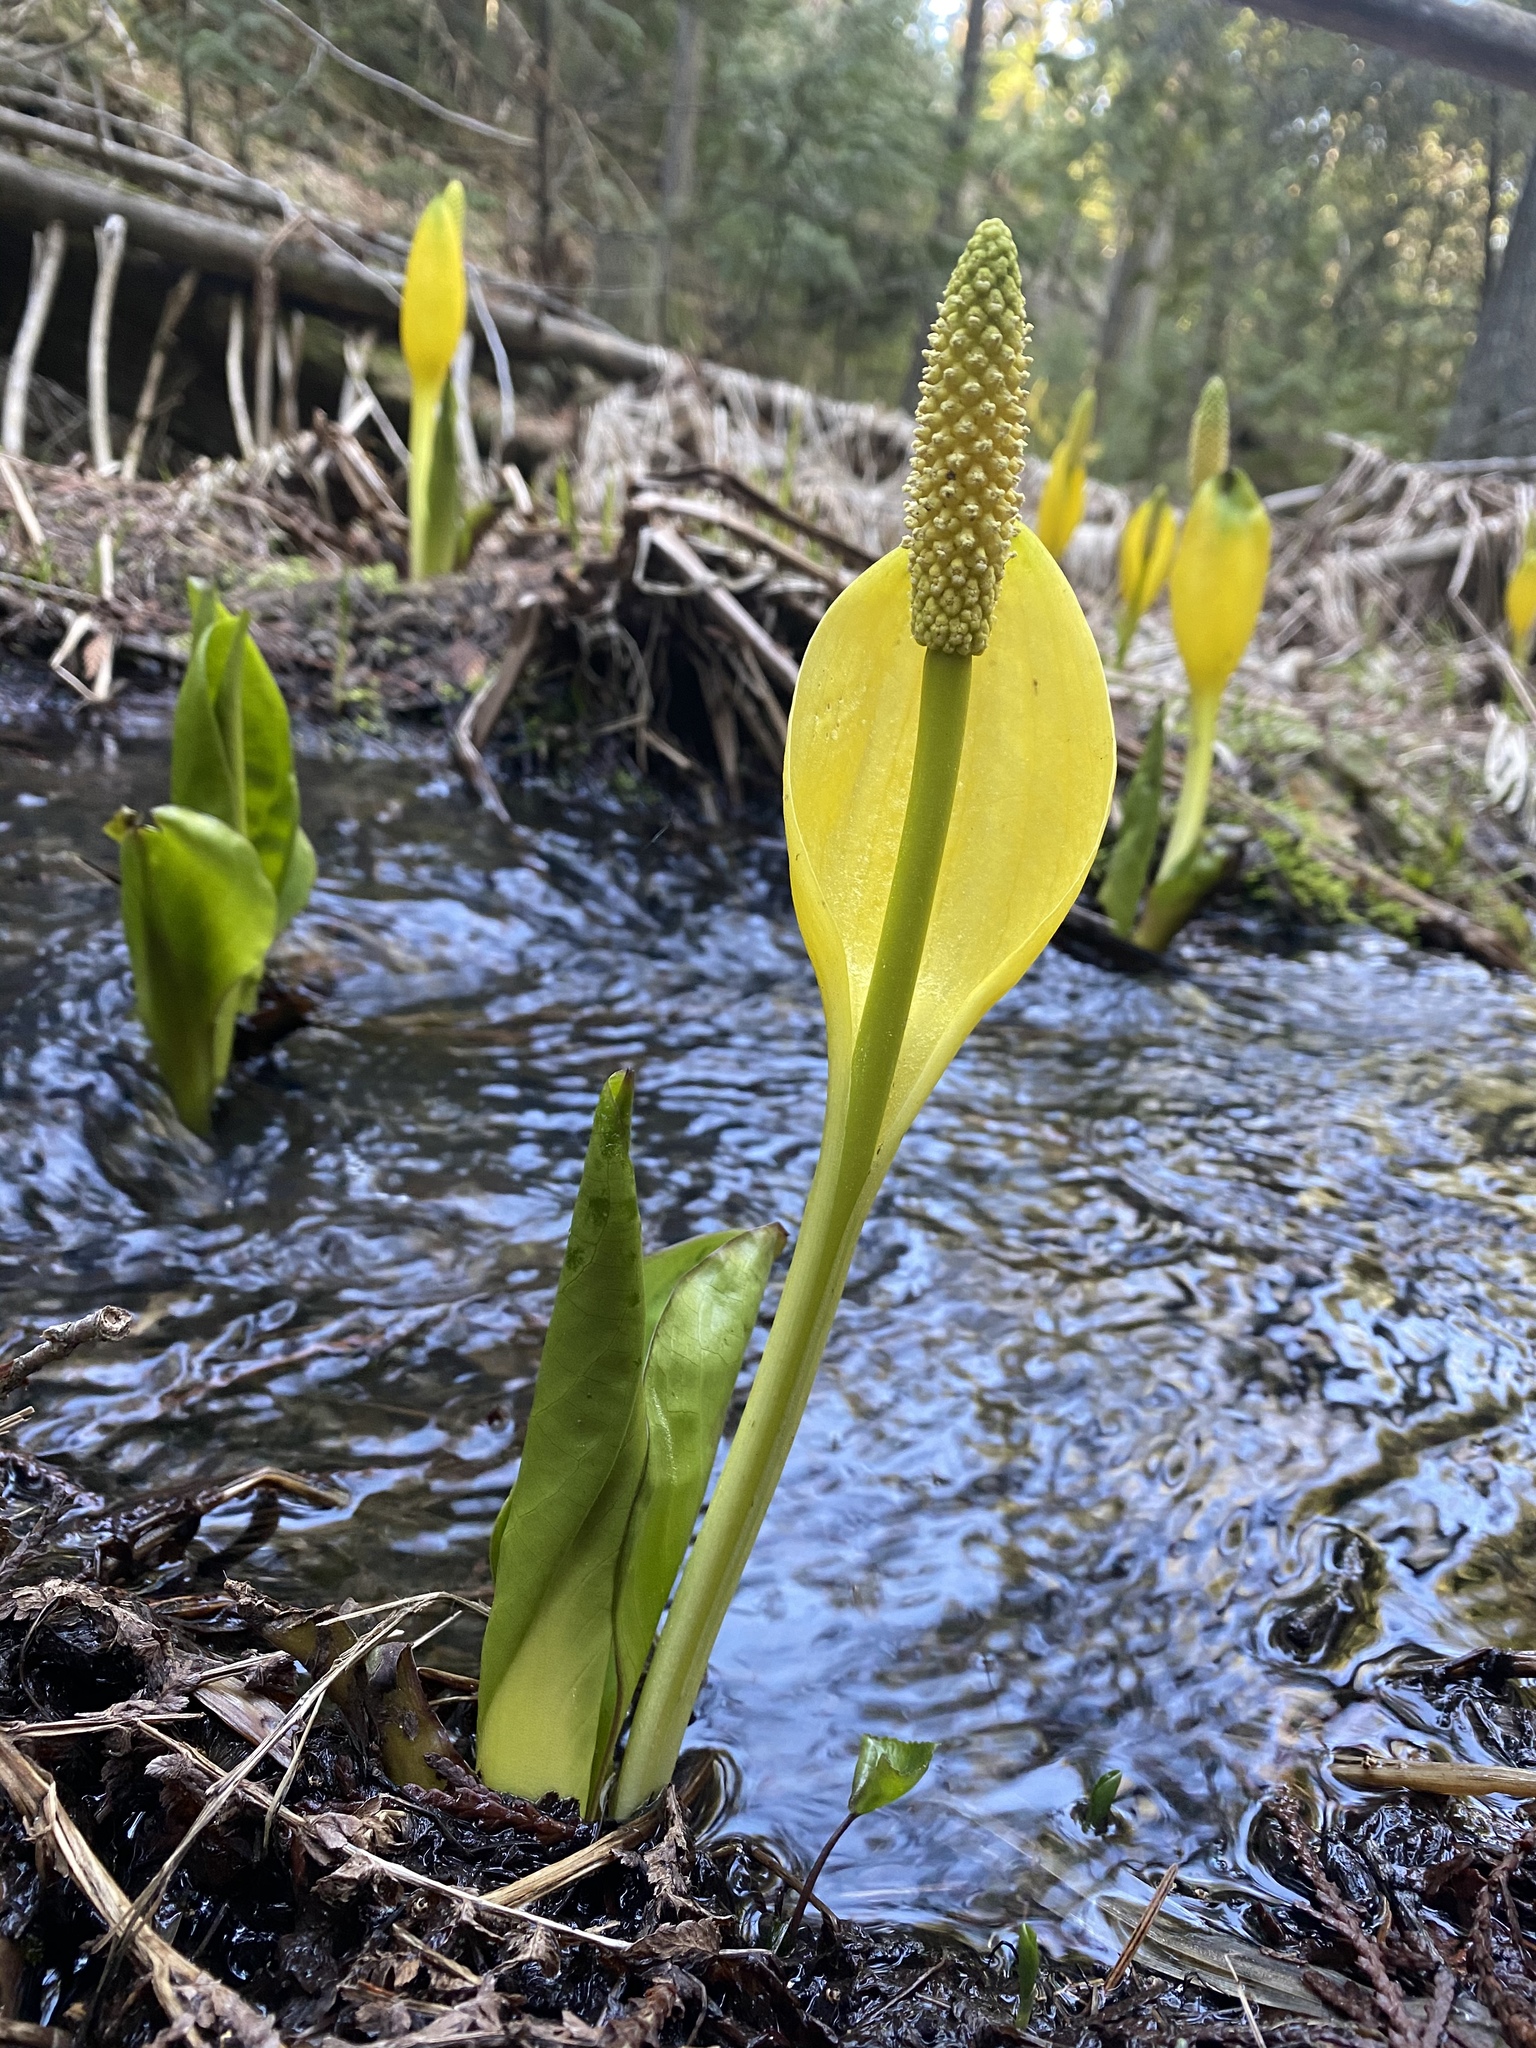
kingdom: Plantae
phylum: Tracheophyta
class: Liliopsida
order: Alismatales
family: Araceae
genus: Lysichiton
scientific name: Lysichiton americanus
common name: American skunk cabbage
